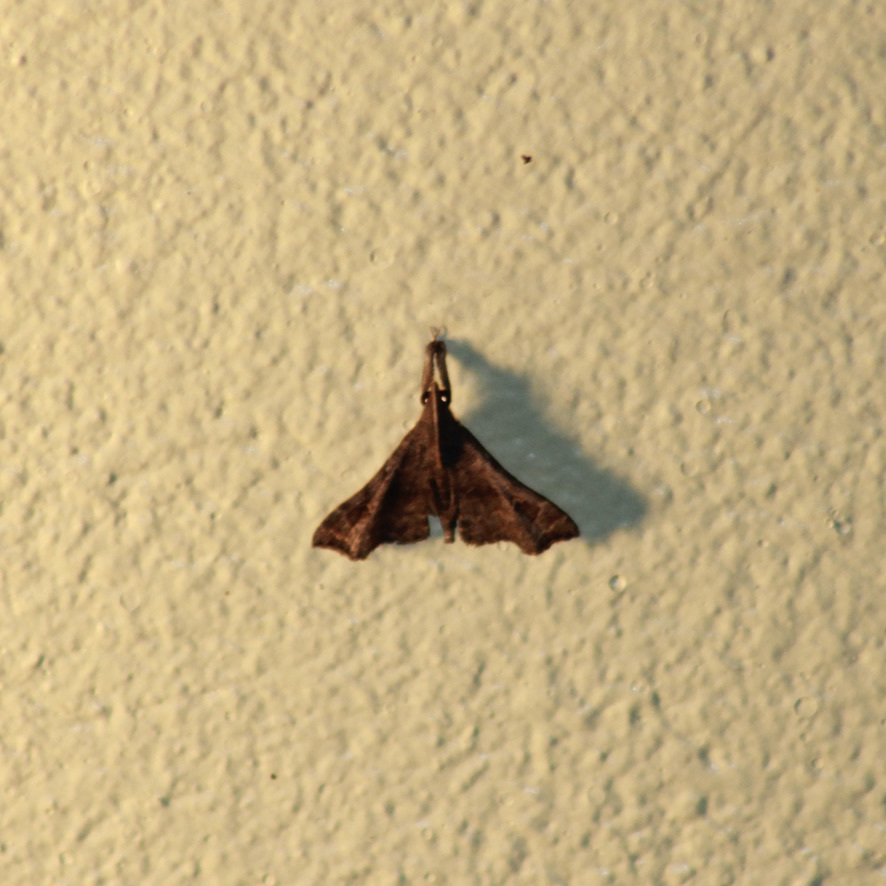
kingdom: Animalia
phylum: Arthropoda
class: Insecta
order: Lepidoptera
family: Erebidae
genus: Mastigophorus
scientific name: Mastigophorus augustus
